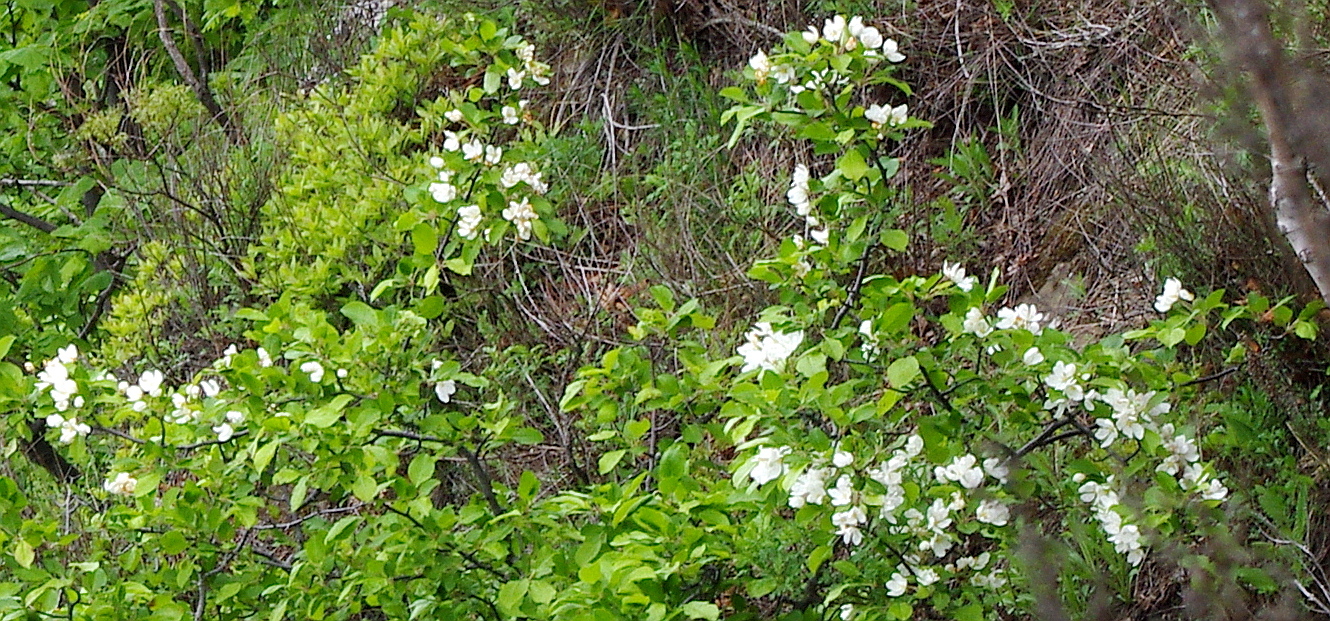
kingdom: Plantae
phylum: Tracheophyta
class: Magnoliopsida
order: Rosales
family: Rosaceae
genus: Malus
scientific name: Malus mandshurica
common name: Siberian crabapple
